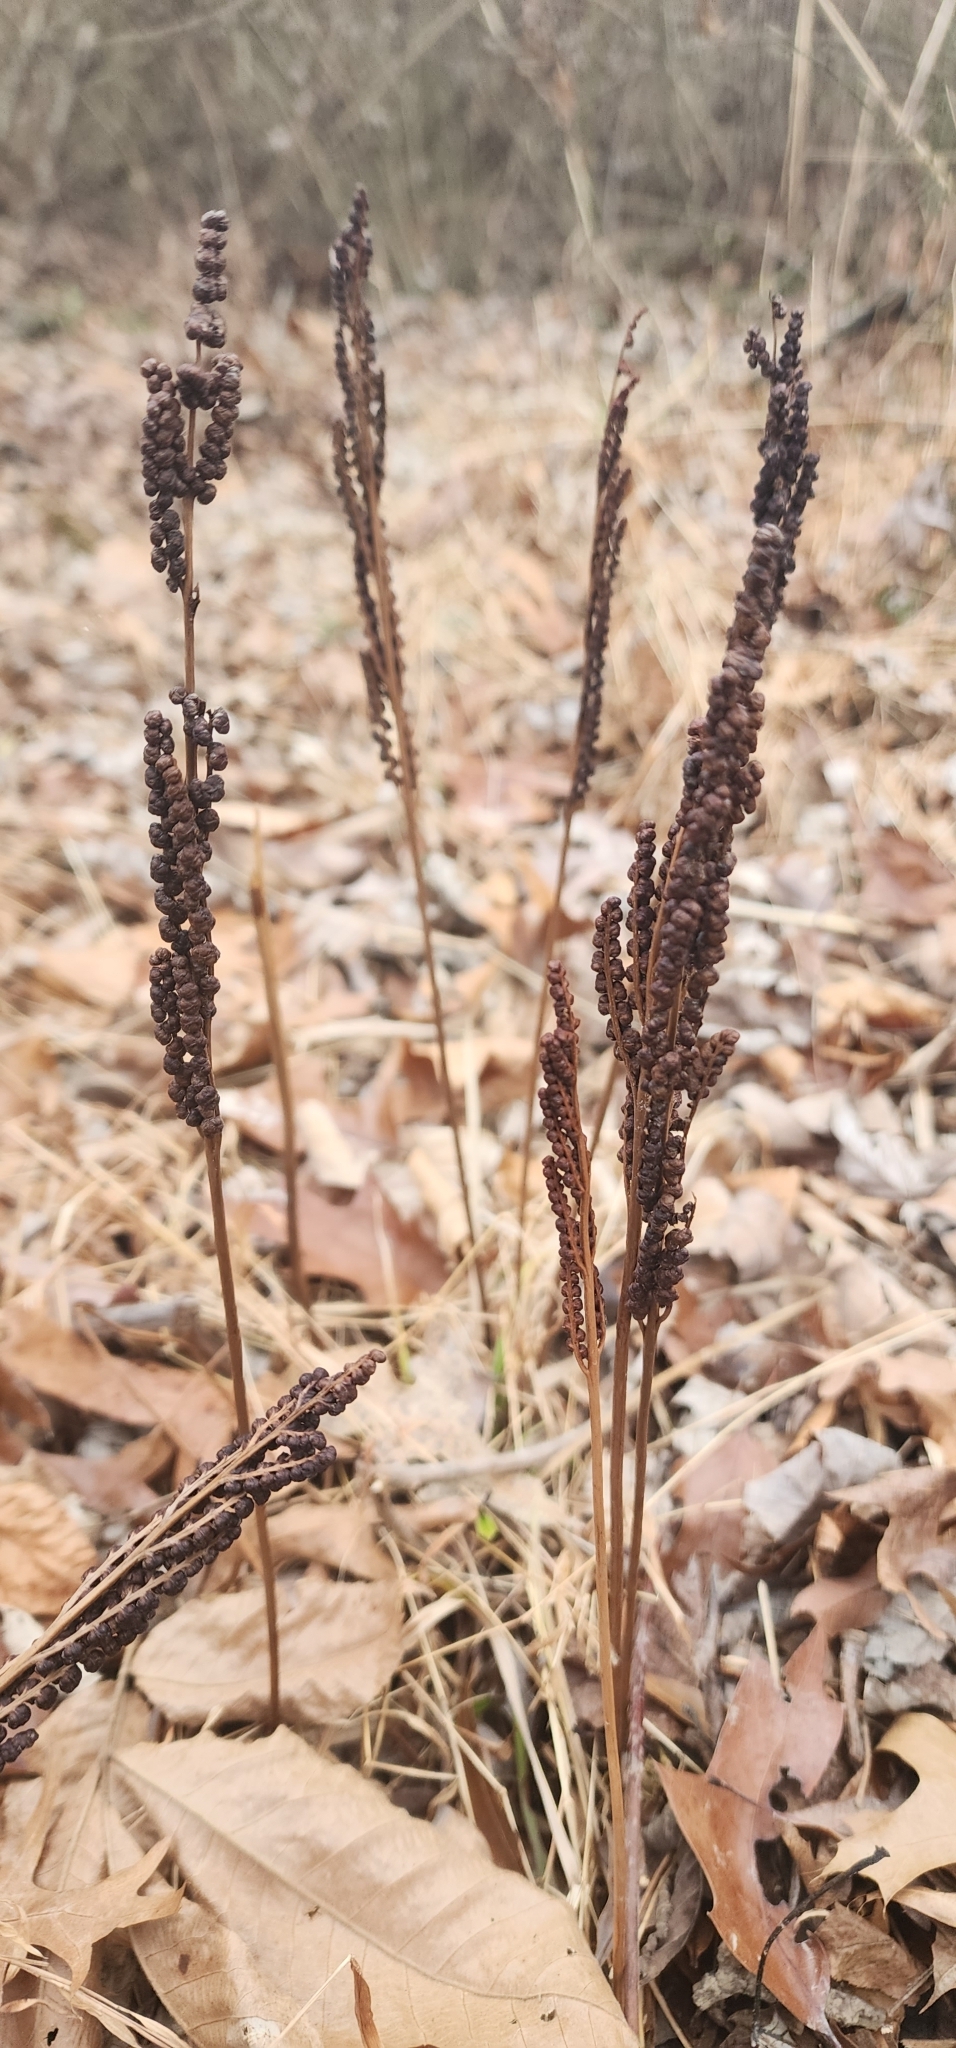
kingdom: Plantae
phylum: Tracheophyta
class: Polypodiopsida
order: Polypodiales
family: Onocleaceae
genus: Onoclea
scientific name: Onoclea sensibilis
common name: Sensitive fern
